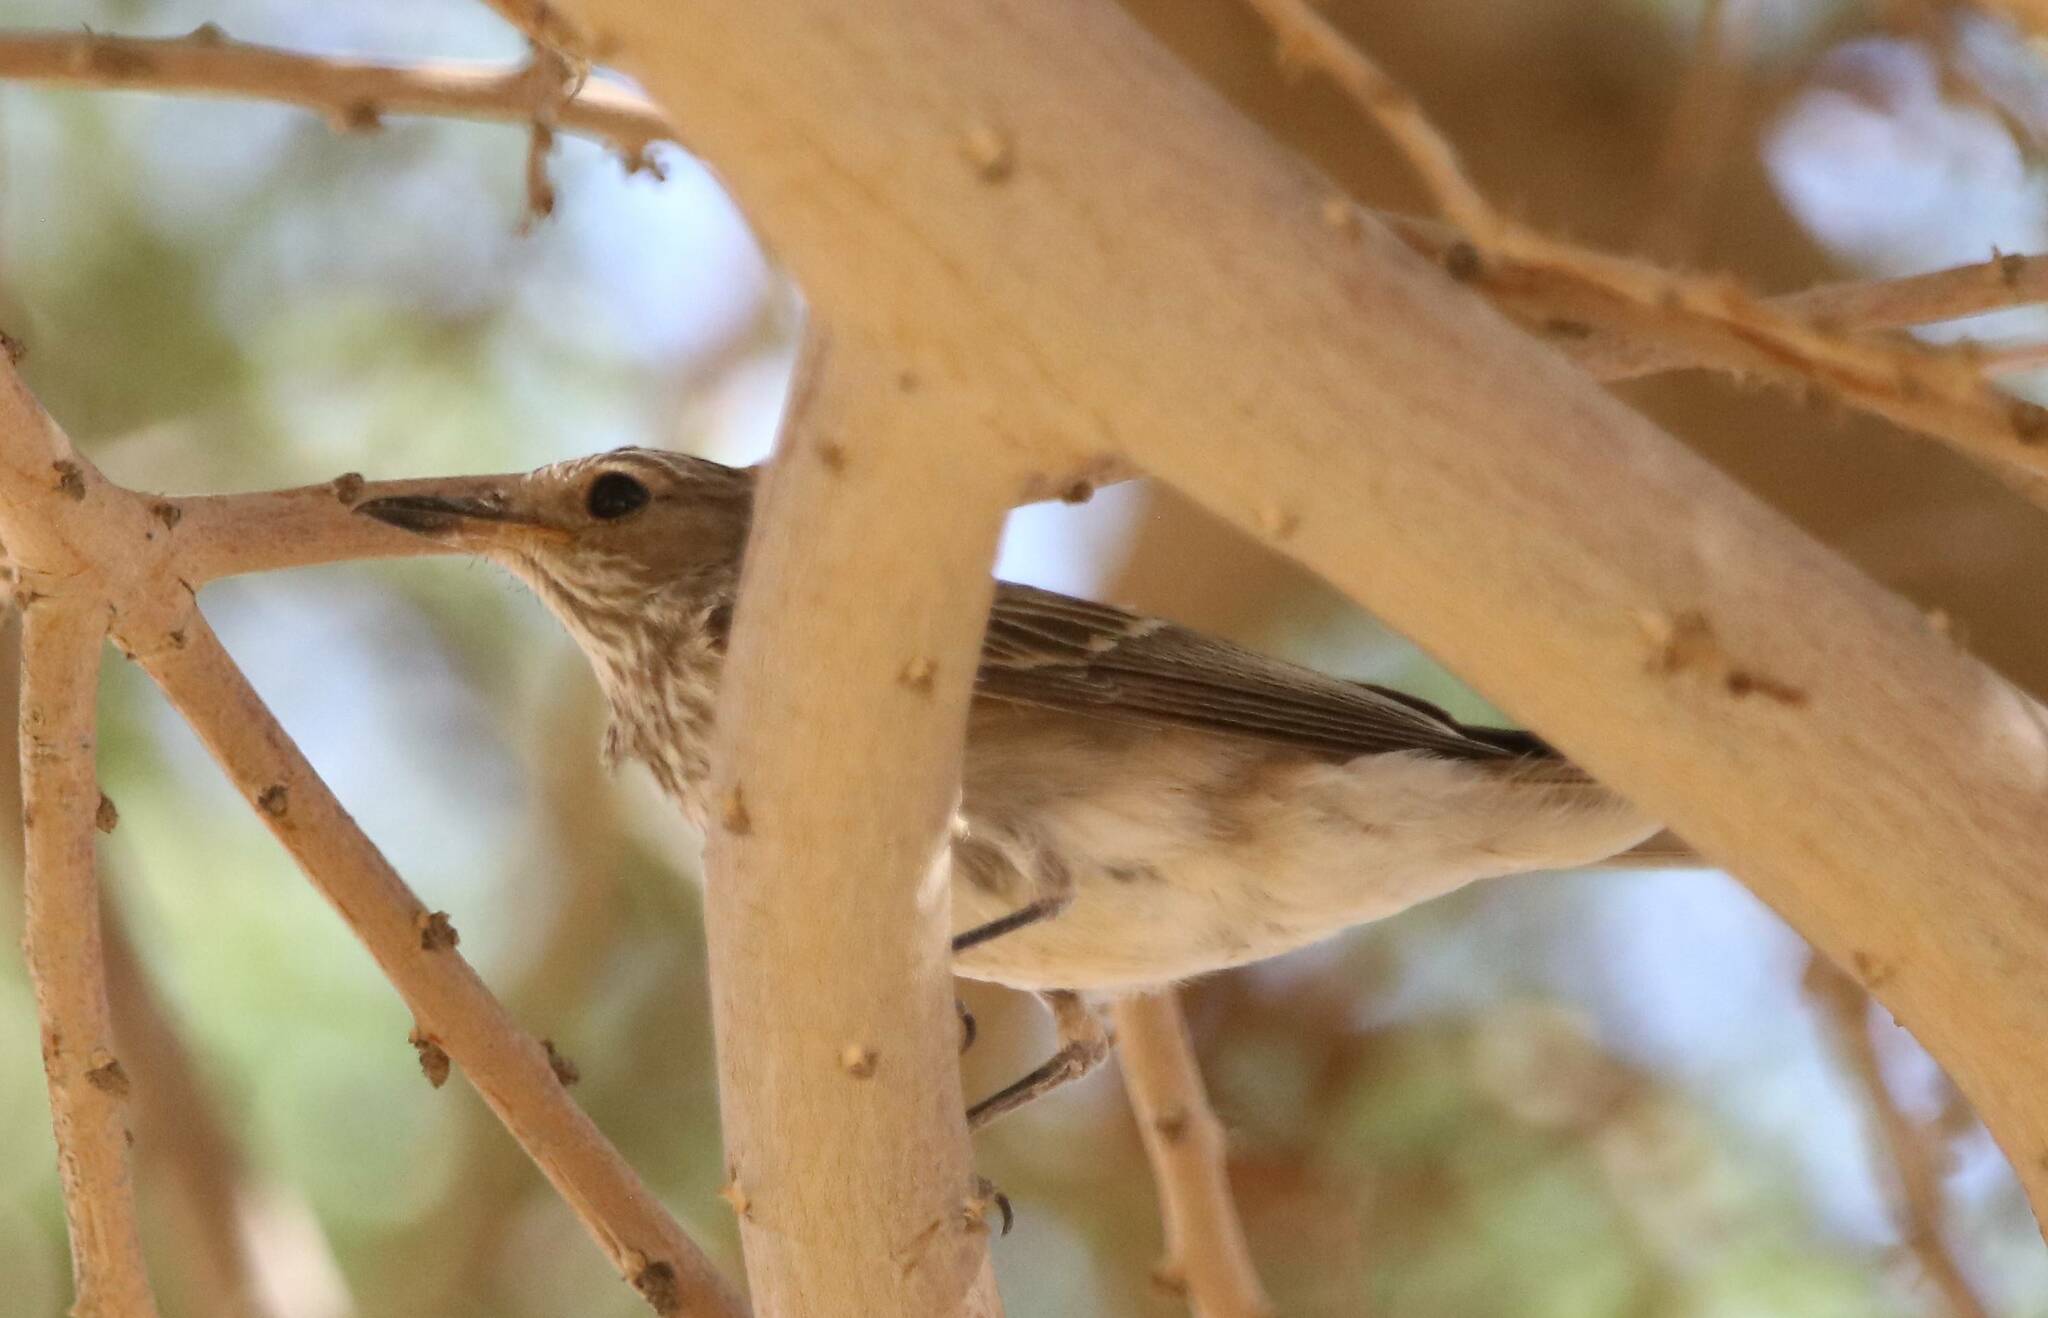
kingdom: Animalia
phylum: Chordata
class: Aves
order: Passeriformes
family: Muscicapidae
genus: Muscicapa
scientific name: Muscicapa striata
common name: Spotted flycatcher
